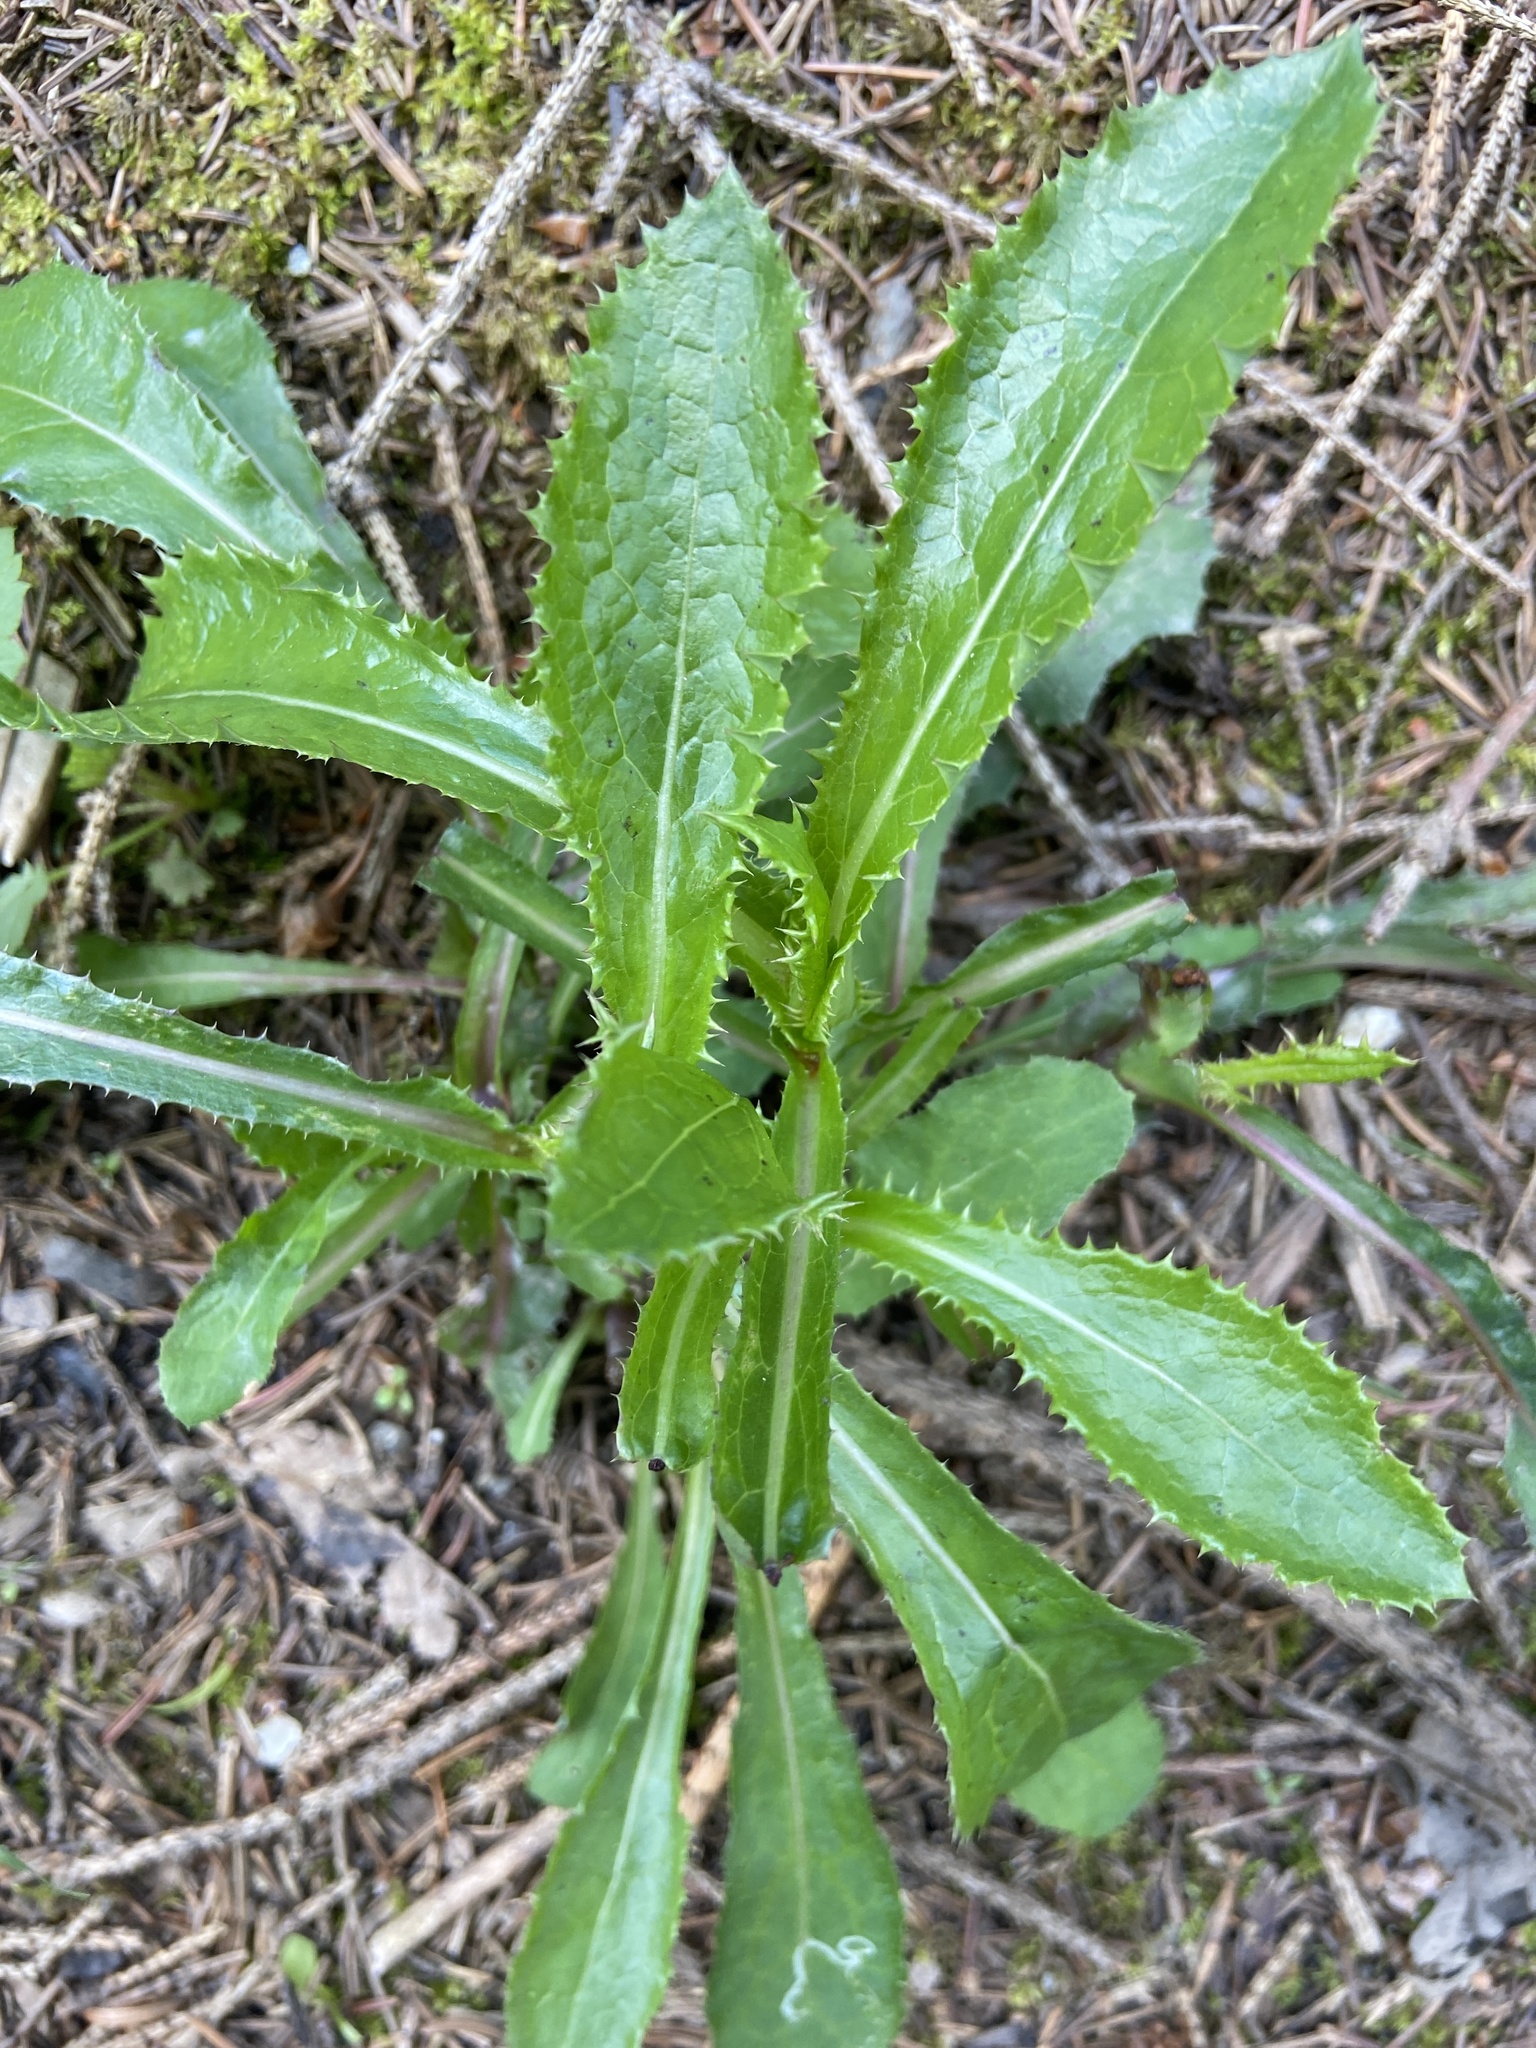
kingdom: Plantae
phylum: Tracheophyta
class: Magnoliopsida
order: Asterales
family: Asteraceae
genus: Sonchus
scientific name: Sonchus asper
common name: Prickly sow-thistle
